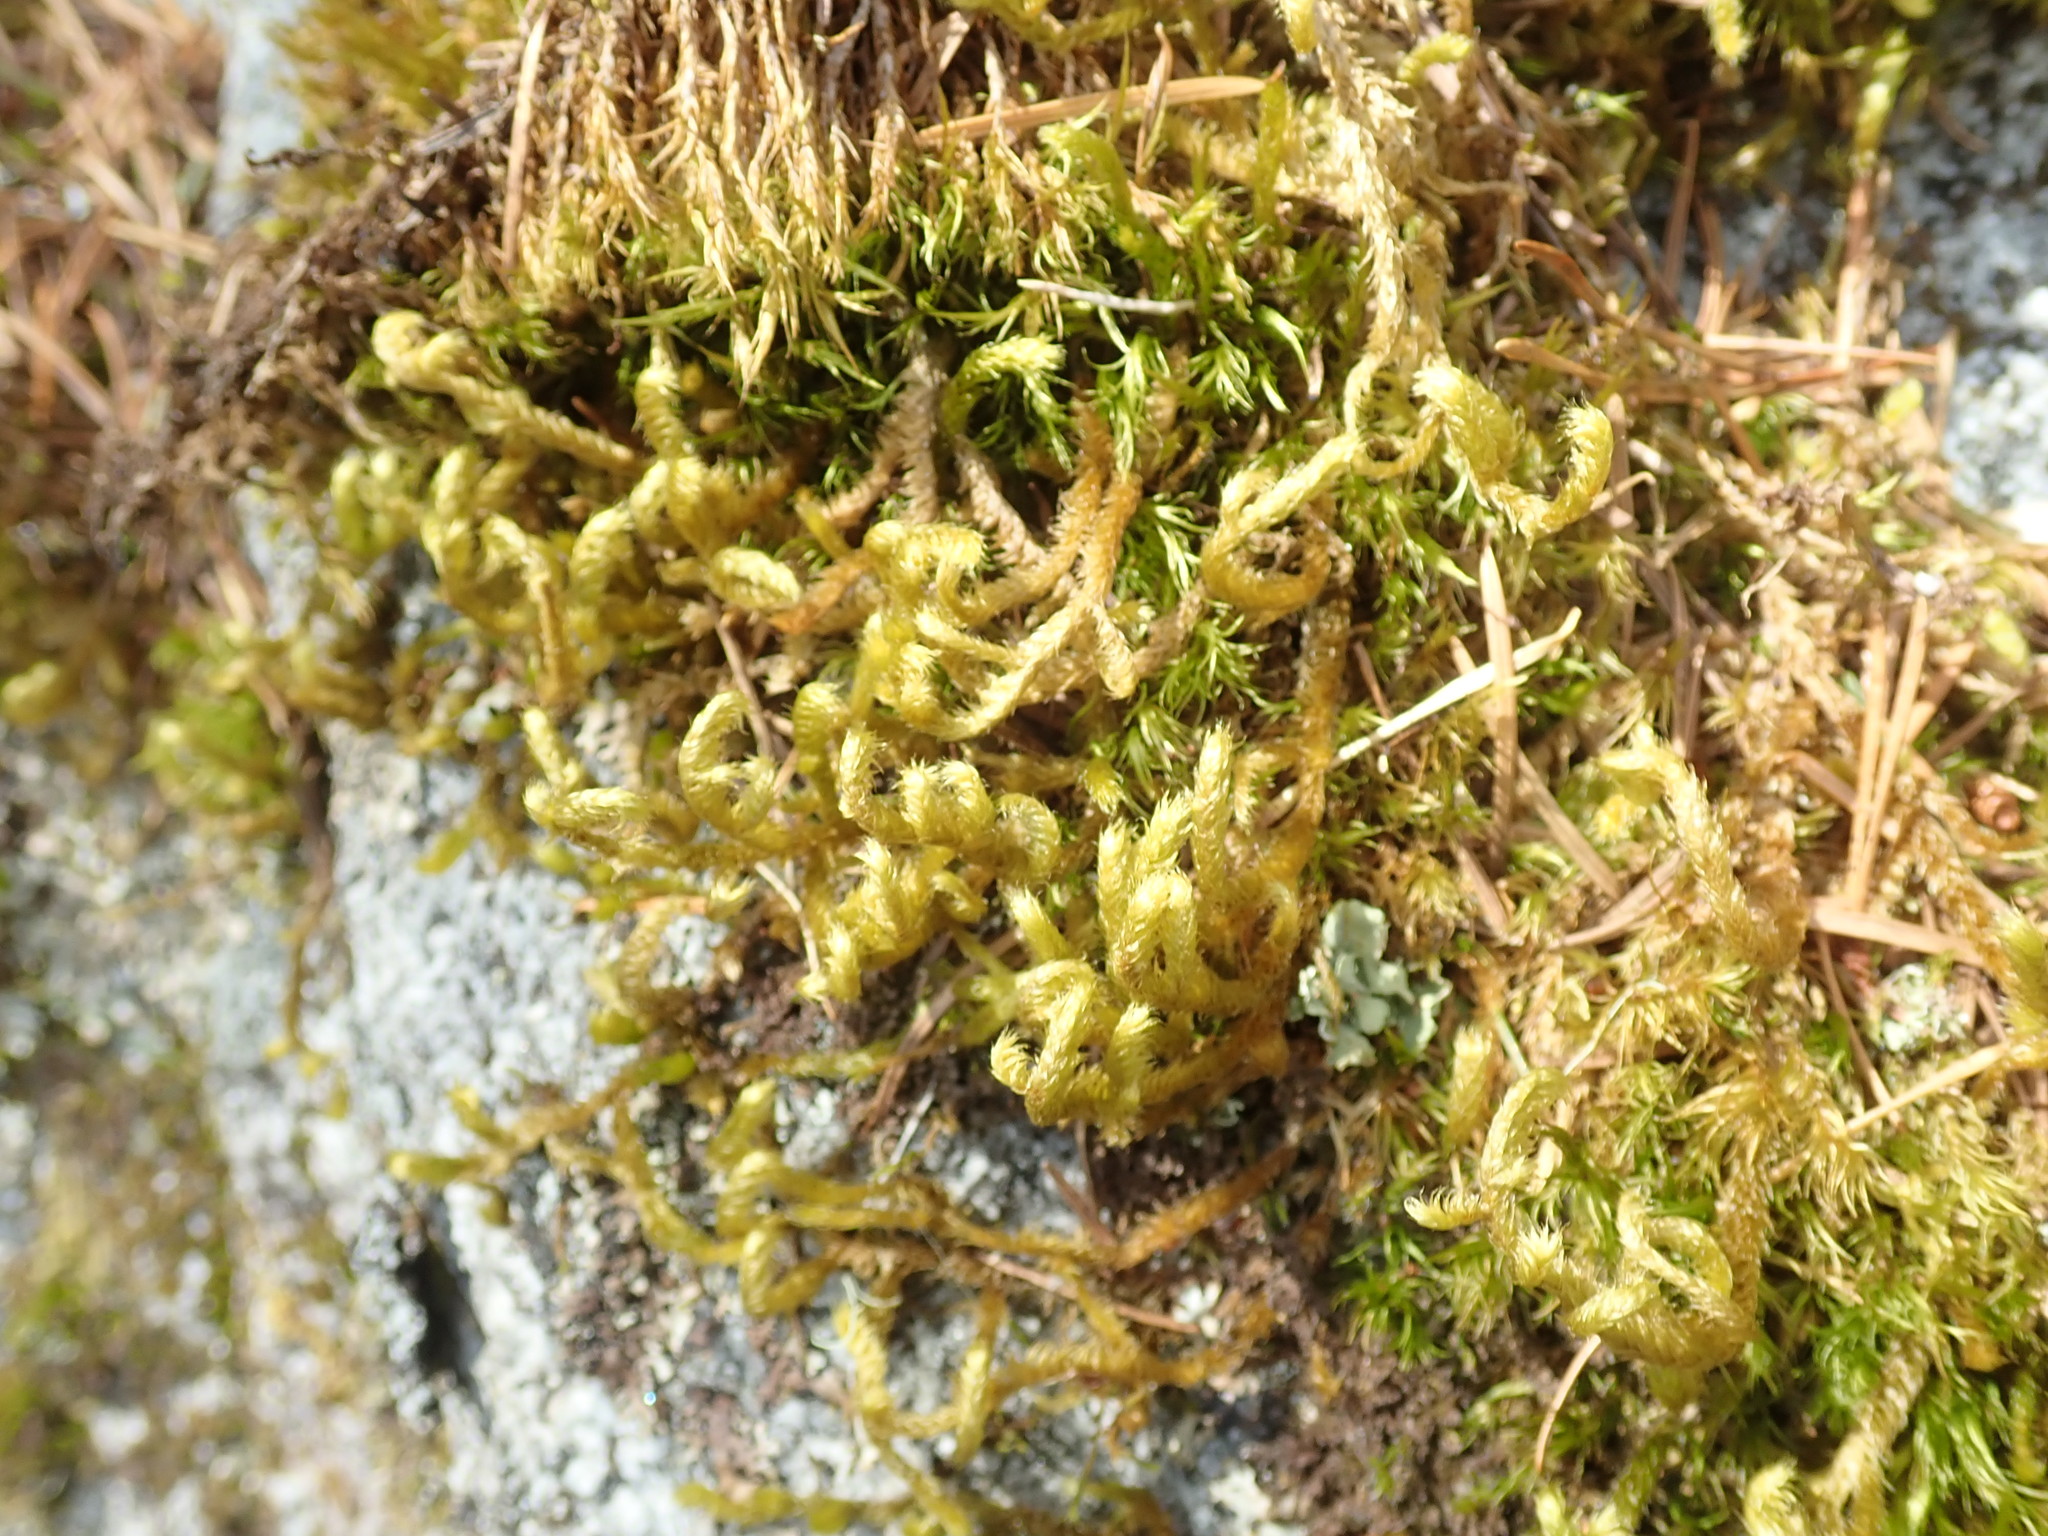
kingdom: Plantae
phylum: Bryophyta
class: Bryopsida
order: Hypnales
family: Antitrichiaceae
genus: Antitrichia
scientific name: Antitrichia curtipendula
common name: Pendulous wing-moss
